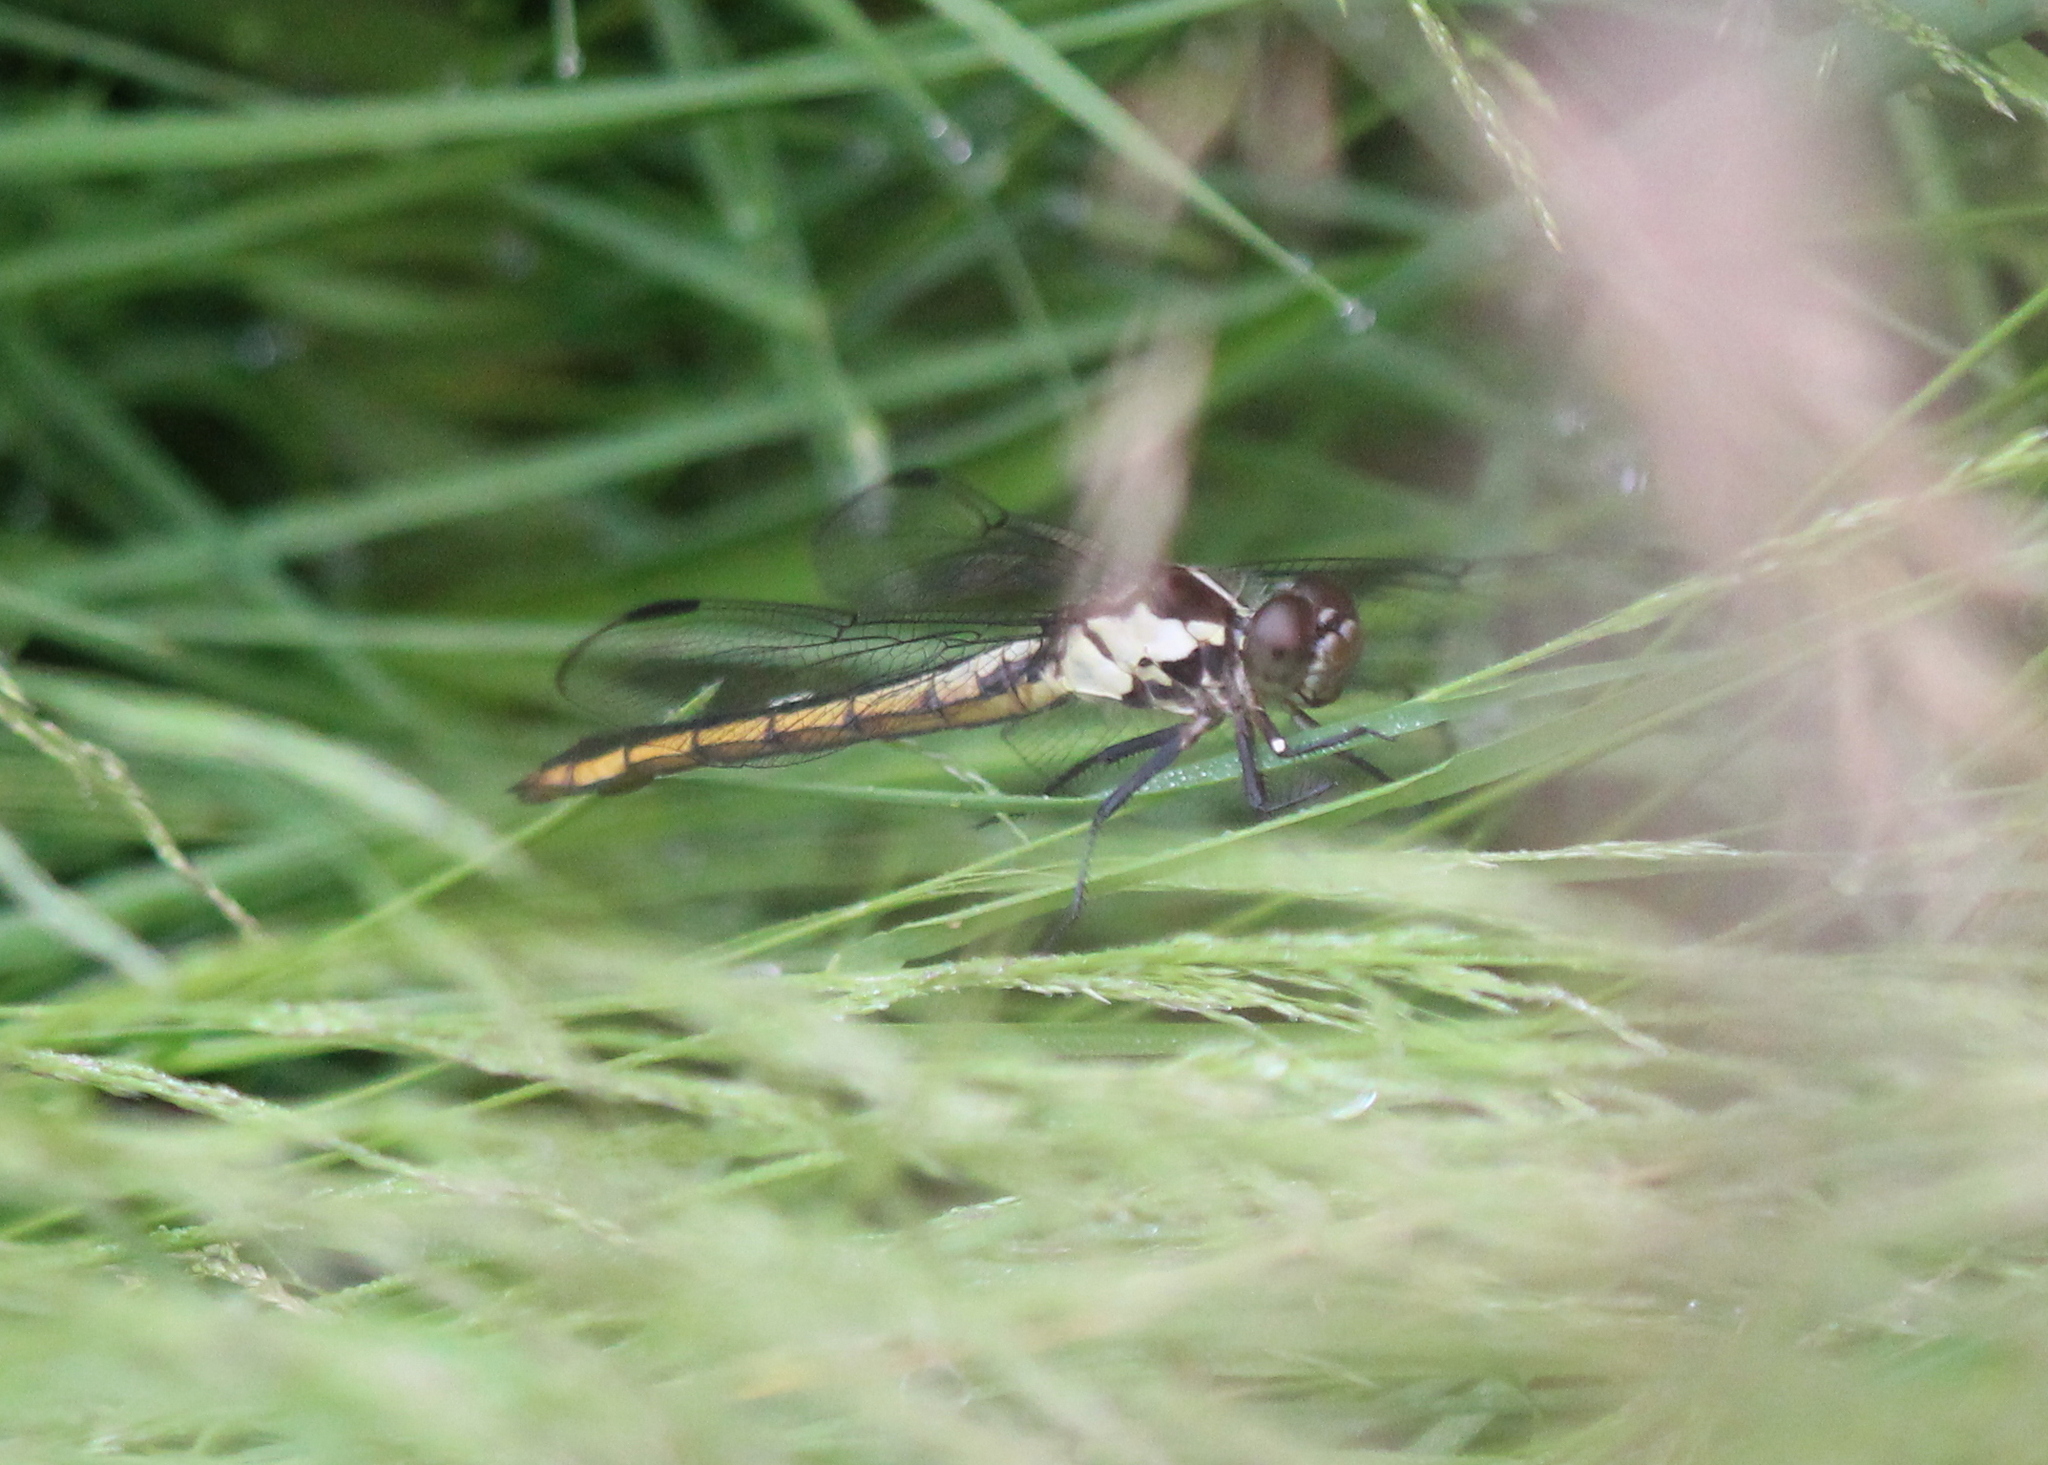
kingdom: Animalia
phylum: Arthropoda
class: Insecta
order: Odonata
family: Libellulidae
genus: Libellula
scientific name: Libellula incesta
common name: Slaty skimmer
